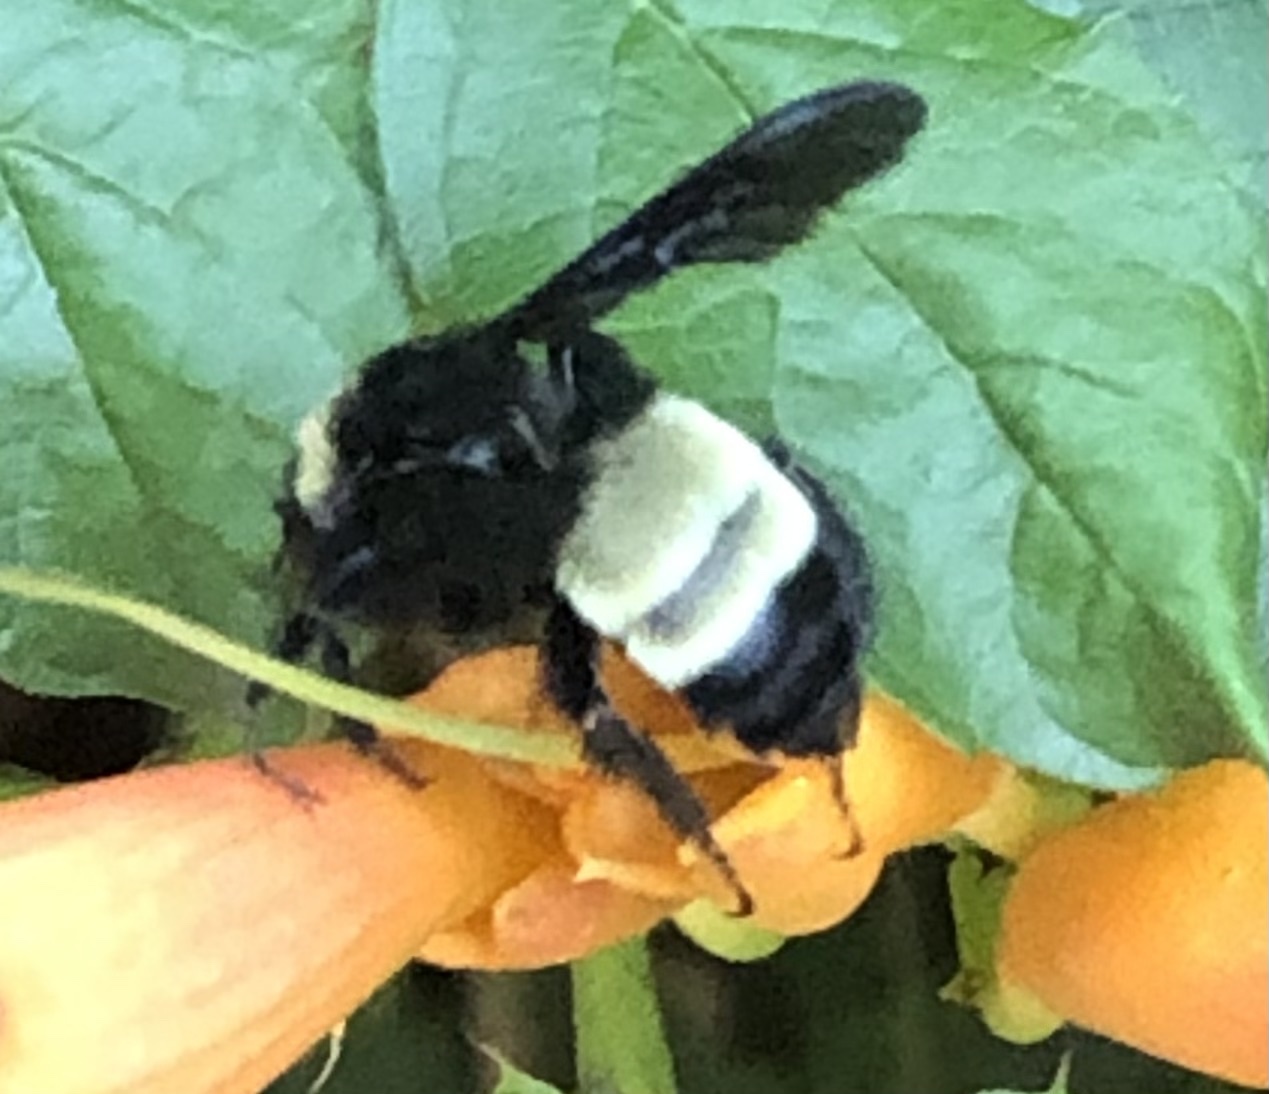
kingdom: Animalia
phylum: Arthropoda
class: Insecta
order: Hymenoptera
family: Apidae
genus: Bombus
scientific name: Bombus pensylvanicus
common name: Bumble bee
